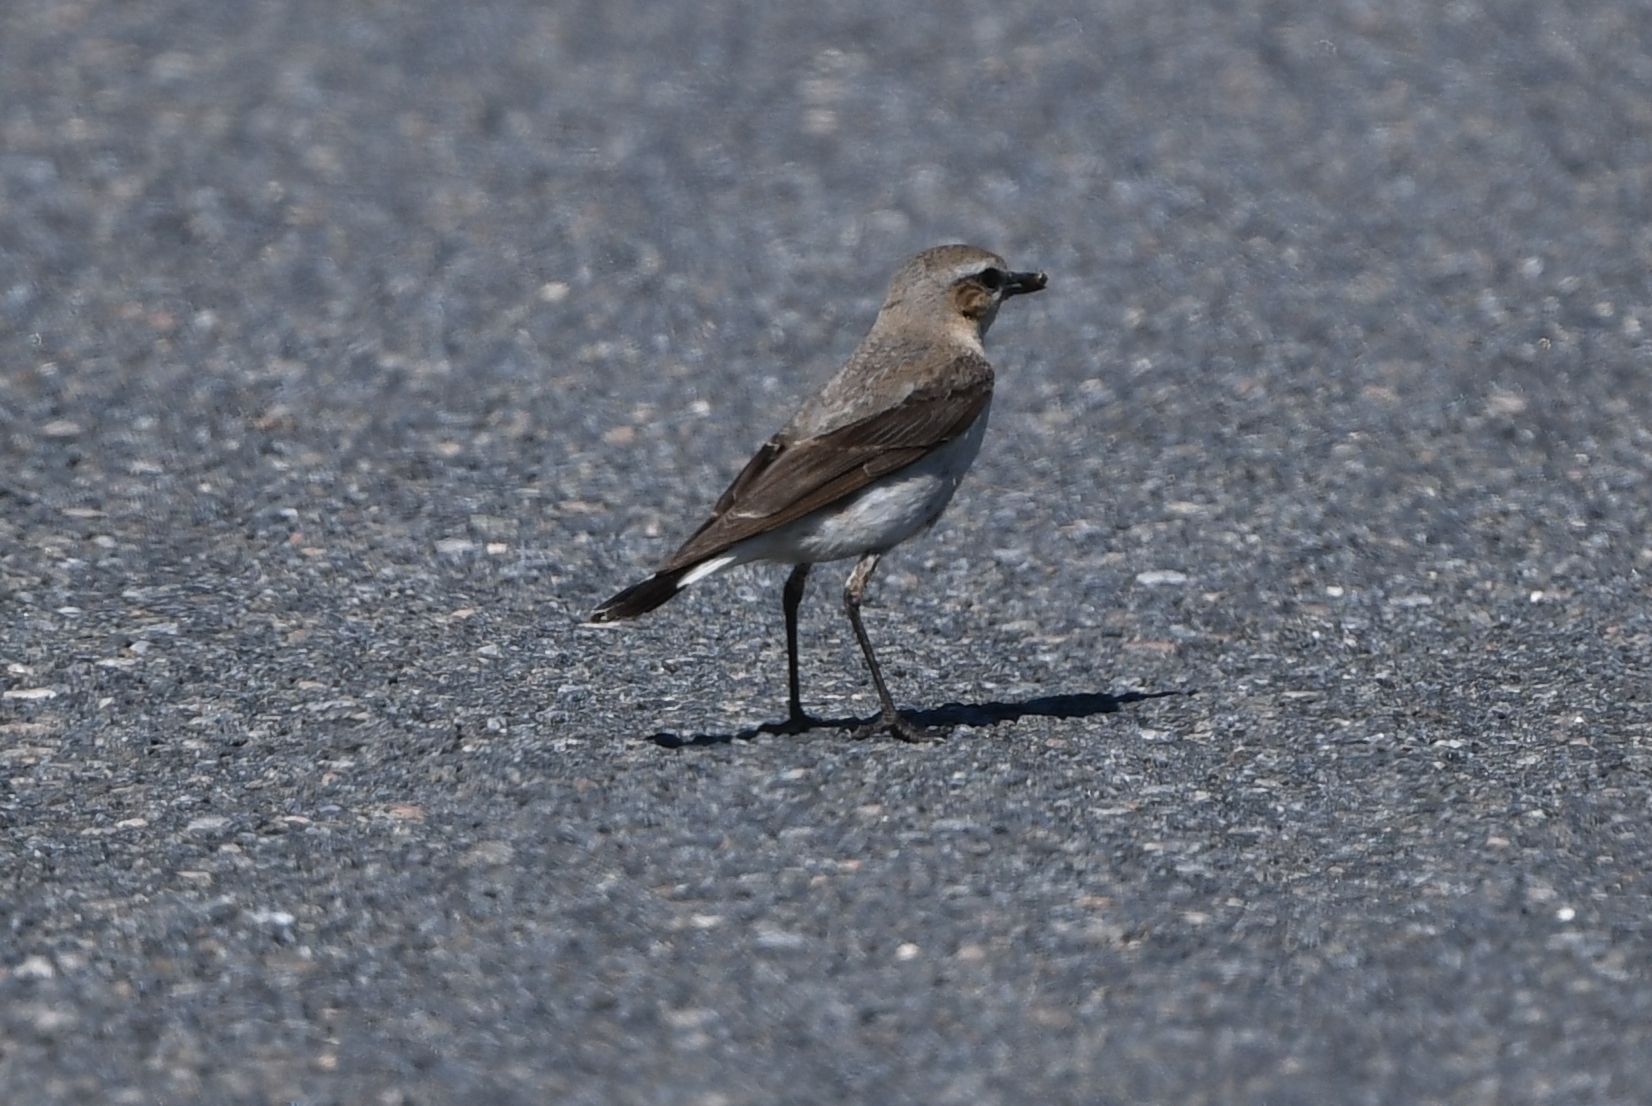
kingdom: Animalia
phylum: Chordata
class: Aves
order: Passeriformes
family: Muscicapidae
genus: Oenanthe
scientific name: Oenanthe oenanthe
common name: Northern wheatear
